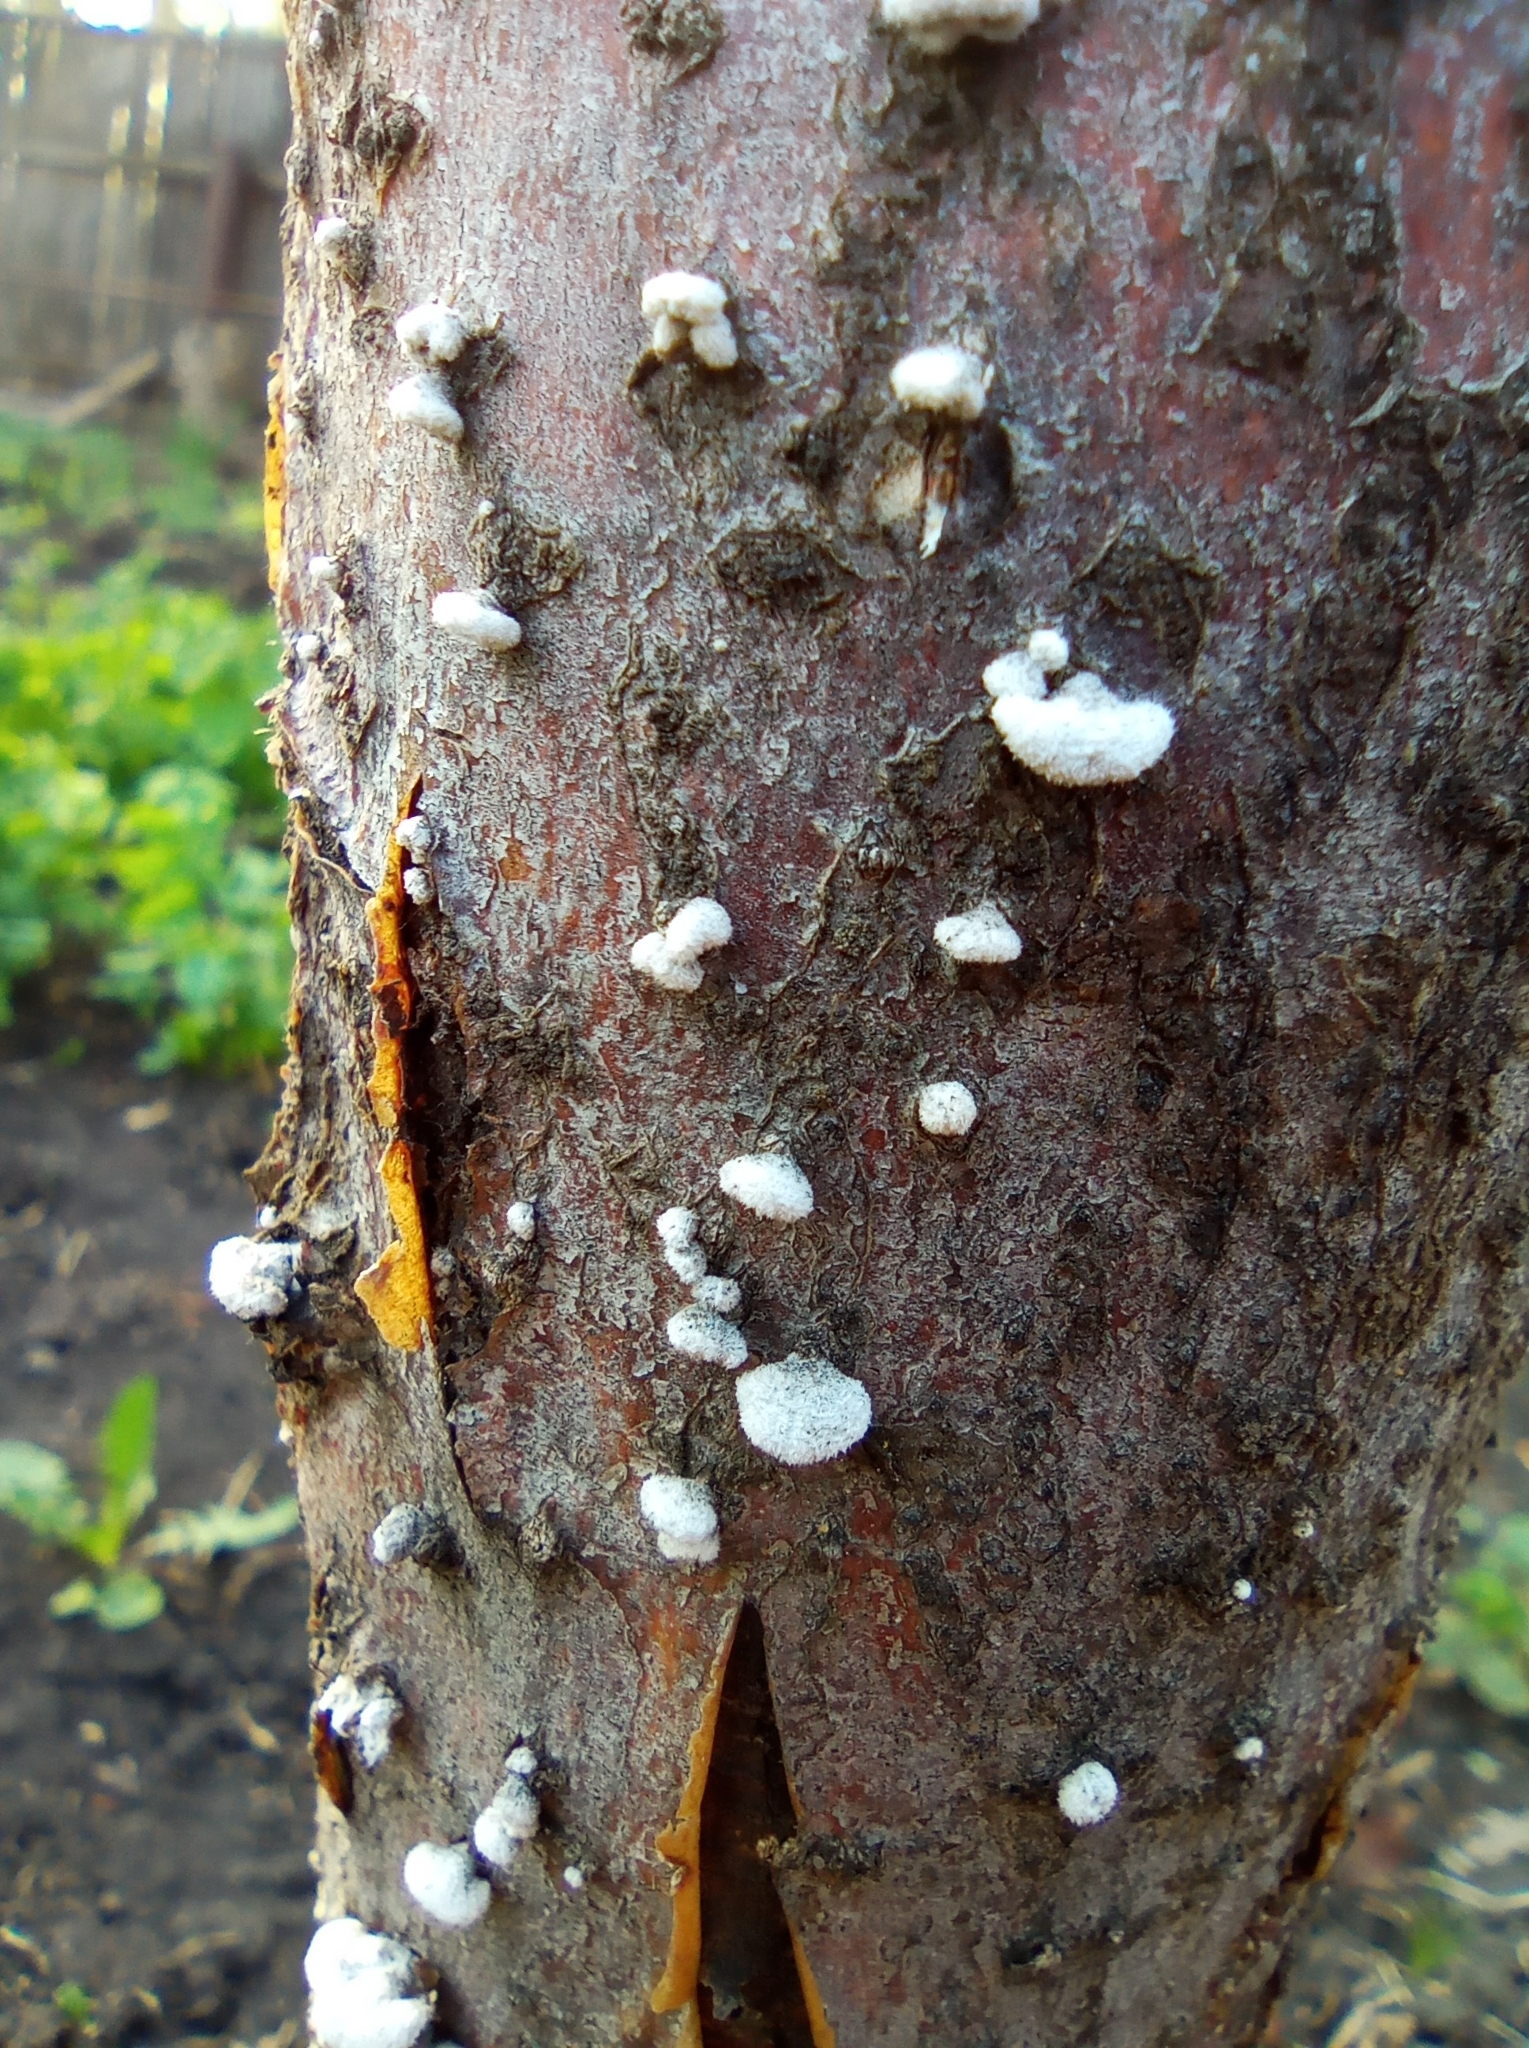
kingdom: Fungi
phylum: Basidiomycota
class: Agaricomycetes
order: Agaricales
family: Schizophyllaceae
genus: Schizophyllum
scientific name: Schizophyllum commune
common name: Common porecrust
